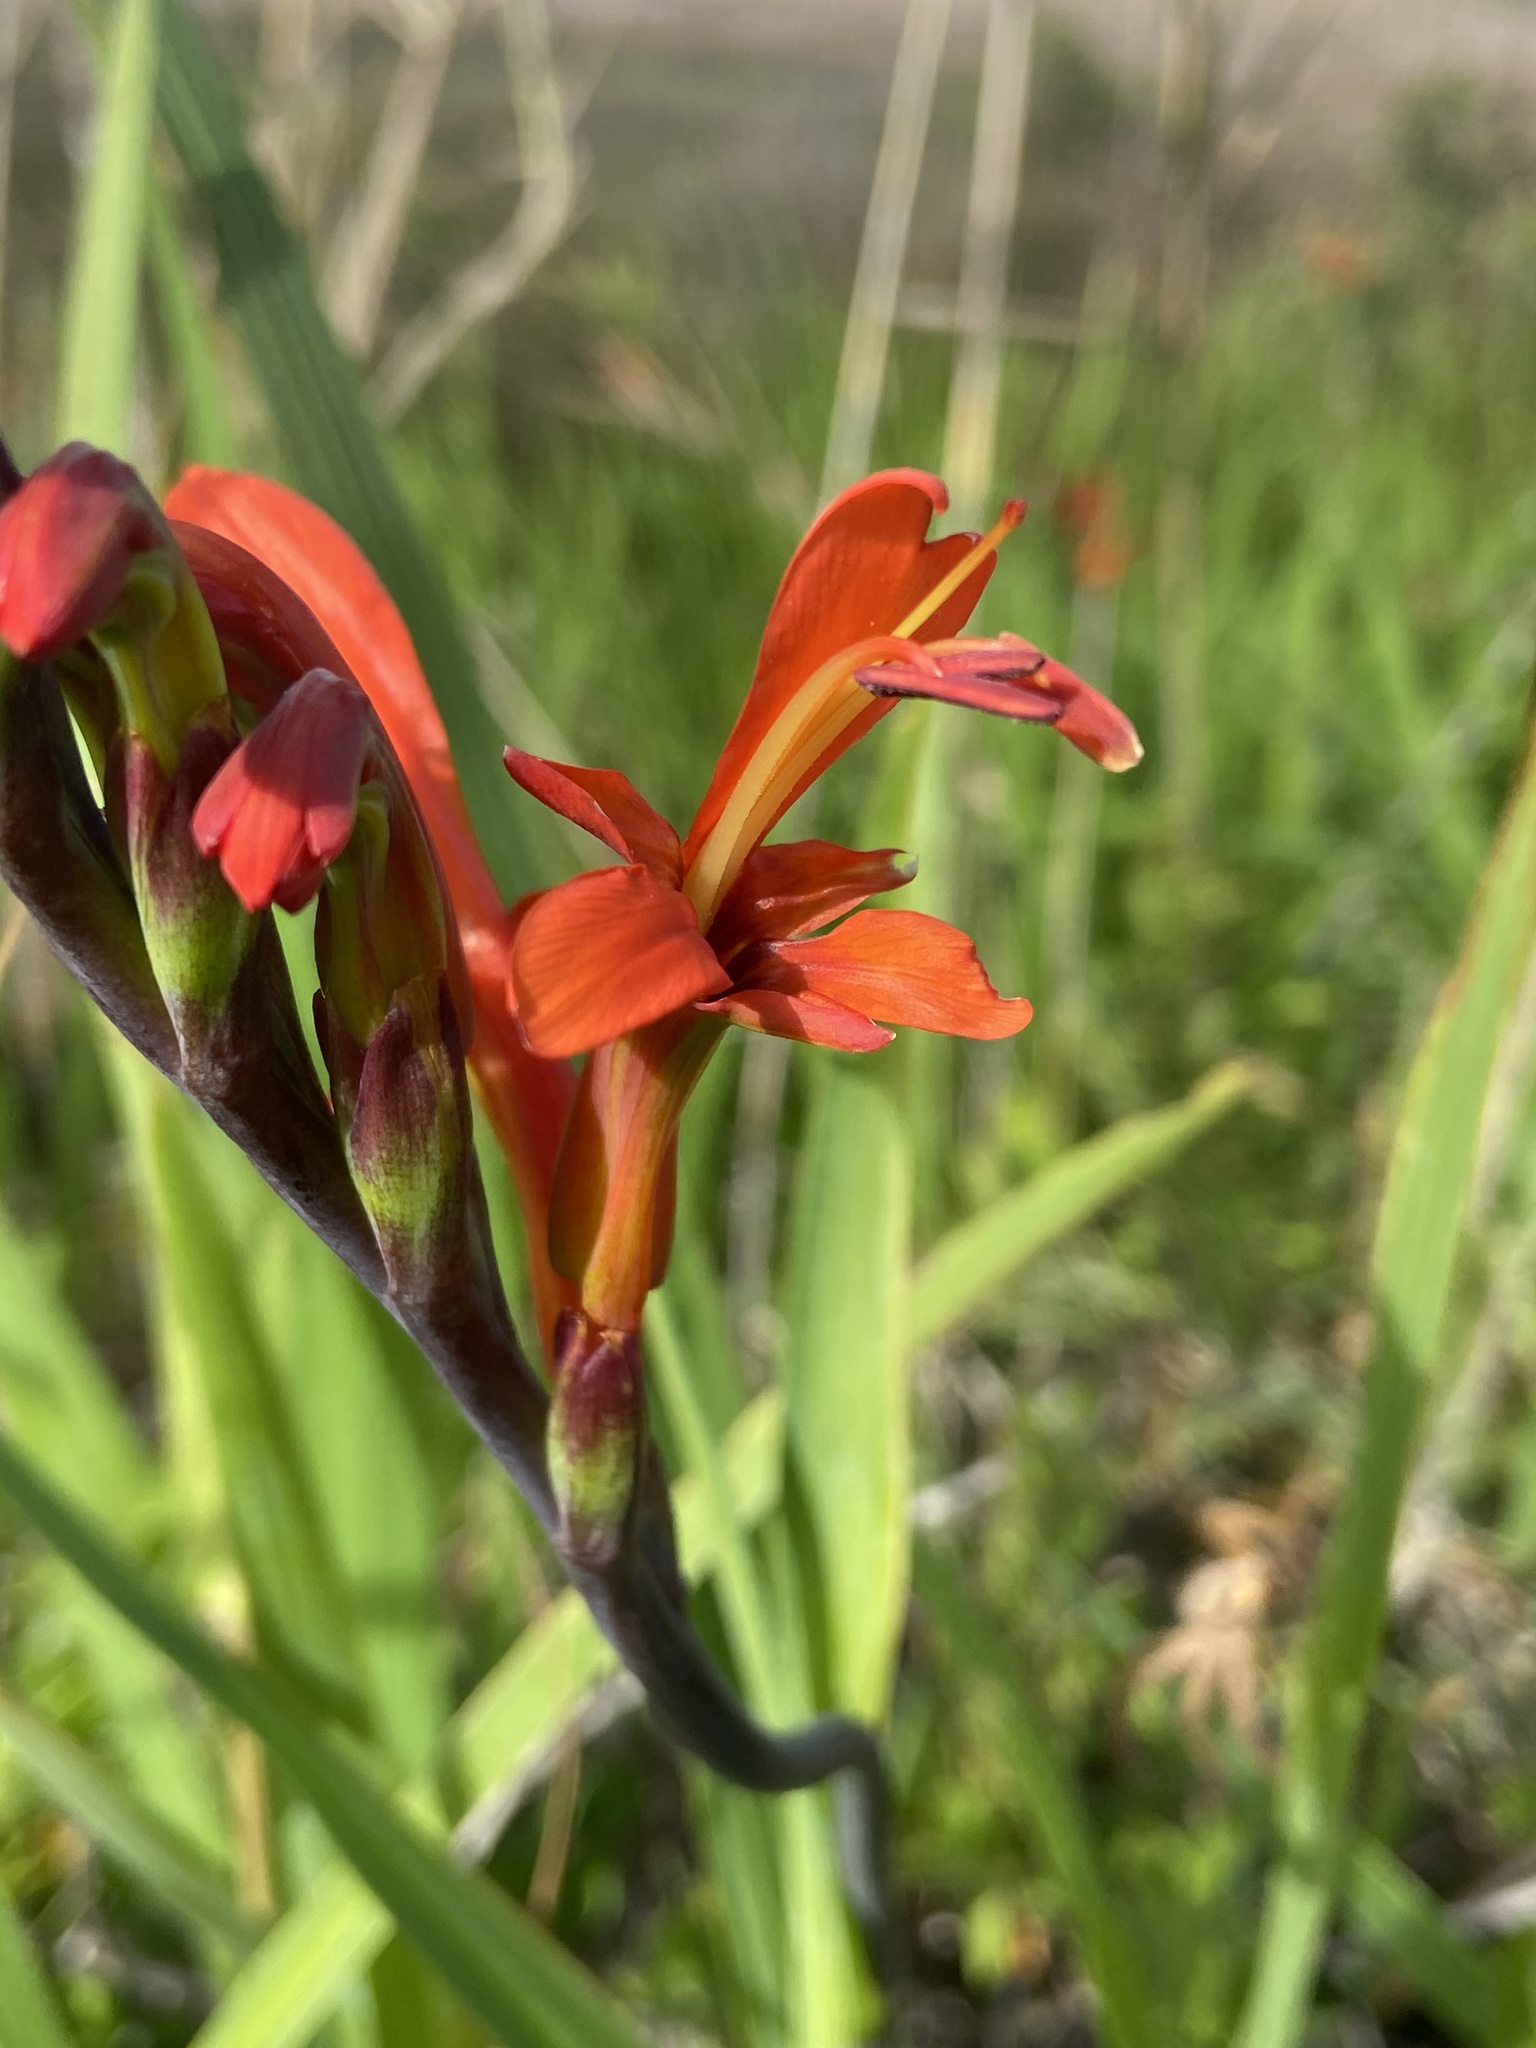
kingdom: Plantae
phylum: Tracheophyta
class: Liliopsida
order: Asparagales
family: Iridaceae
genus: Chasmanthe
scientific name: Chasmanthe aethiopica
